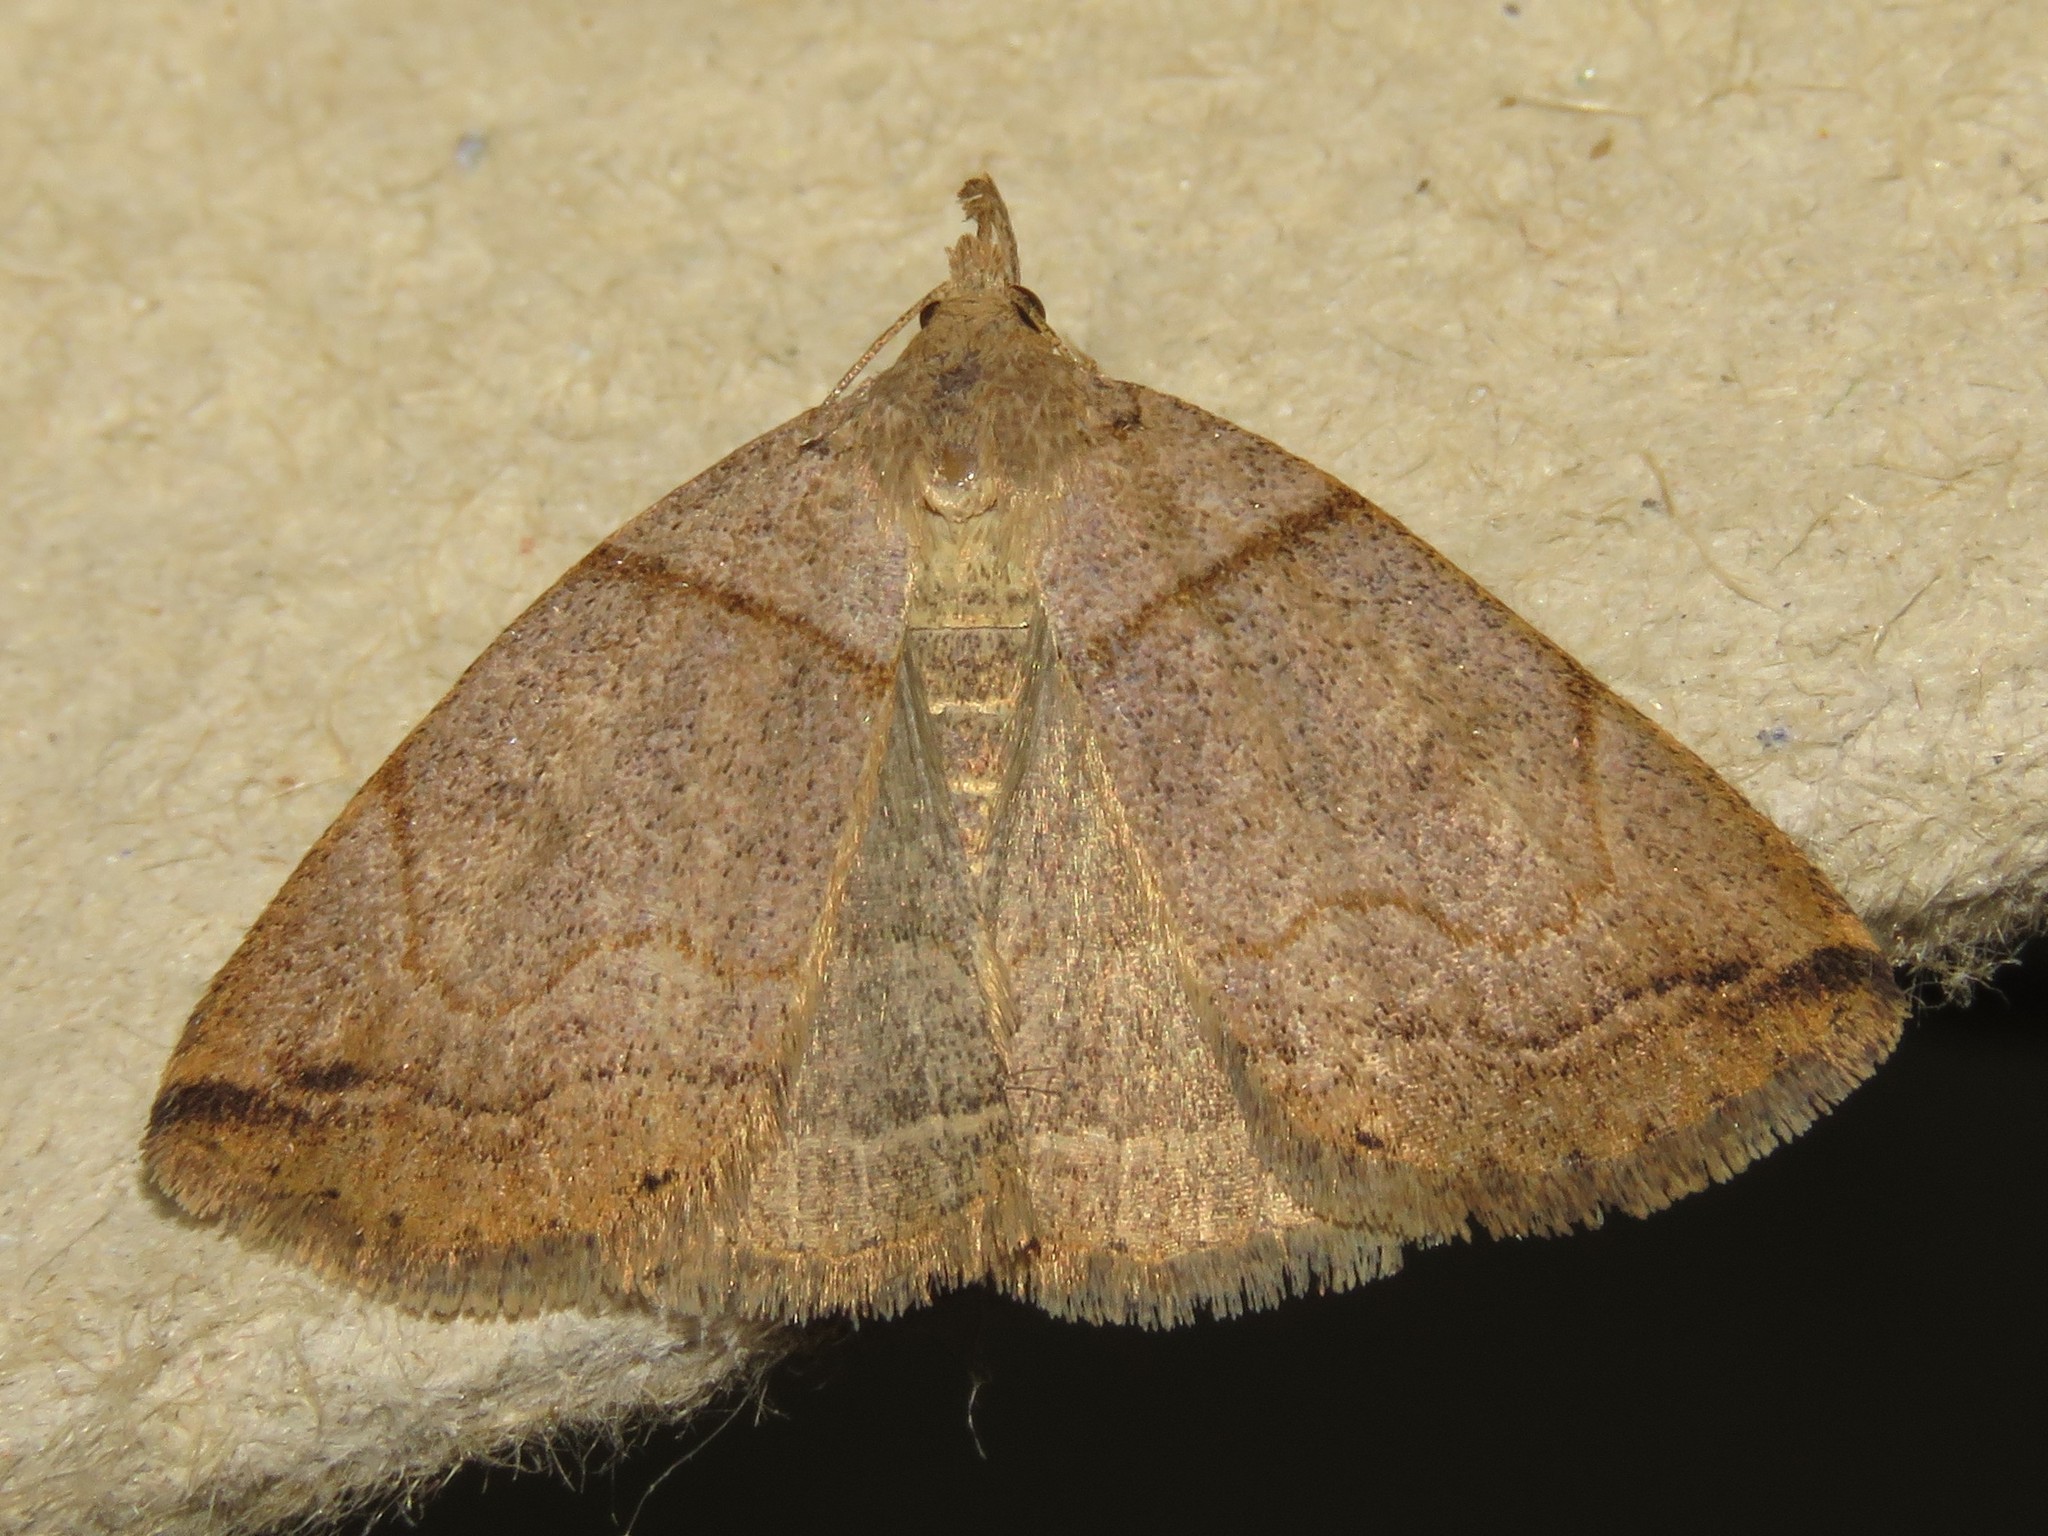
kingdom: Animalia
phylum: Arthropoda
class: Insecta
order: Lepidoptera
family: Erebidae
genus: Zanclognatha
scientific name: Zanclognatha laevigata
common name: Variable fan-foot
